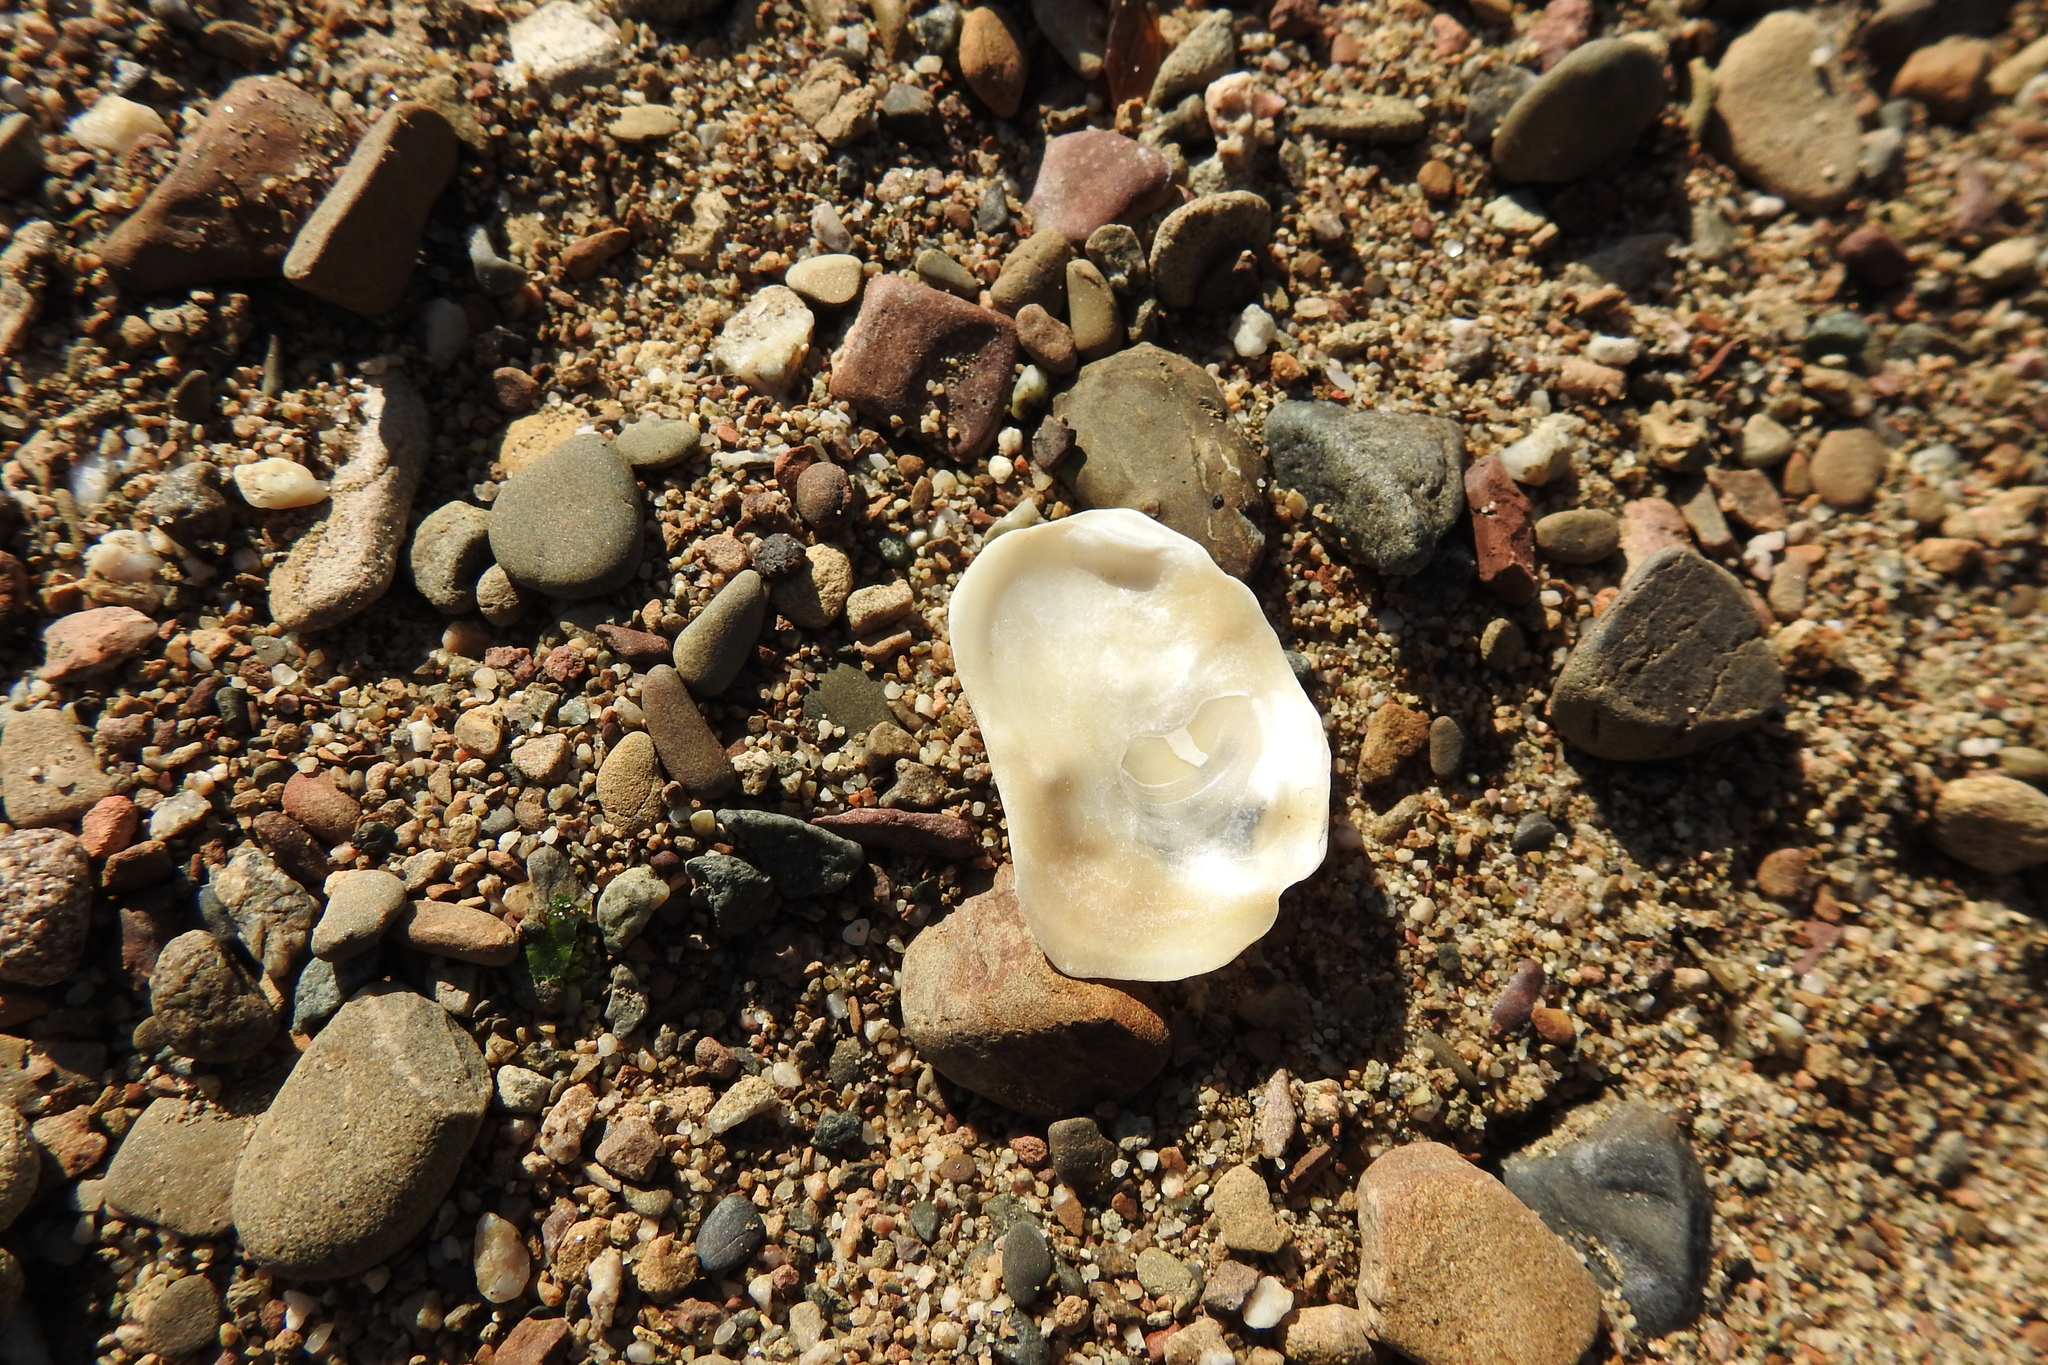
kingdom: Animalia
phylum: Mollusca
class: Bivalvia
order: Ostreida
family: Ostreidae
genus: Magallana
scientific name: Magallana gigas
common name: Pacific oyster
